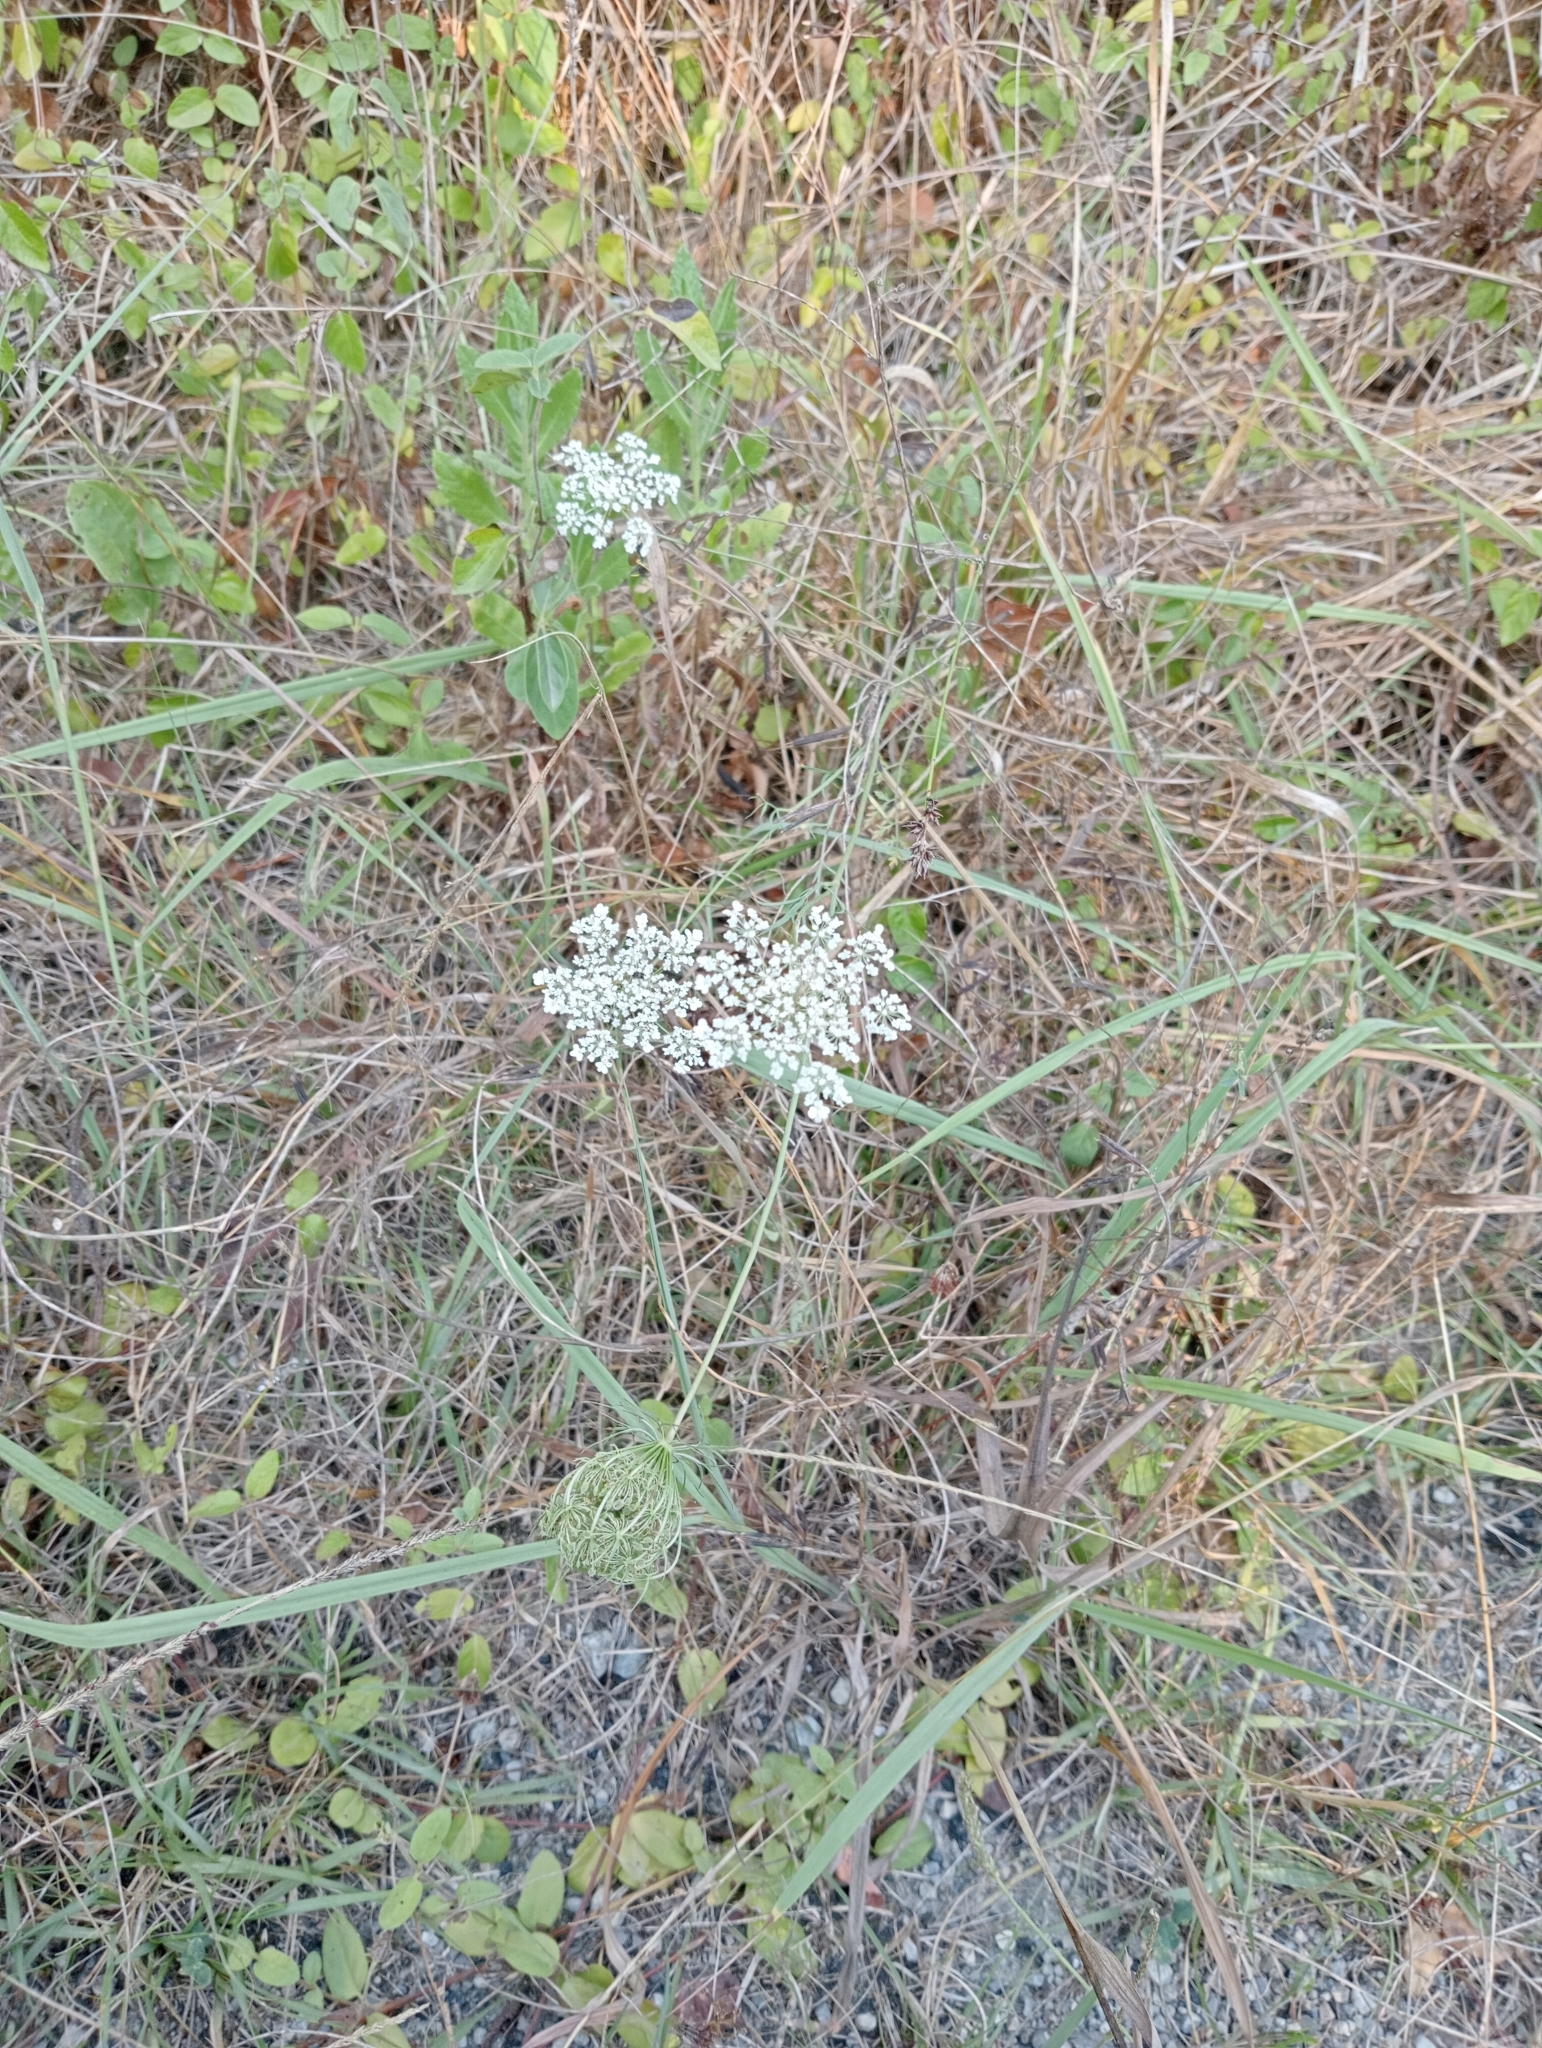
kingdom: Plantae
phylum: Tracheophyta
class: Magnoliopsida
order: Apiales
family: Apiaceae
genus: Daucus
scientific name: Daucus carota
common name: Wild carrot
